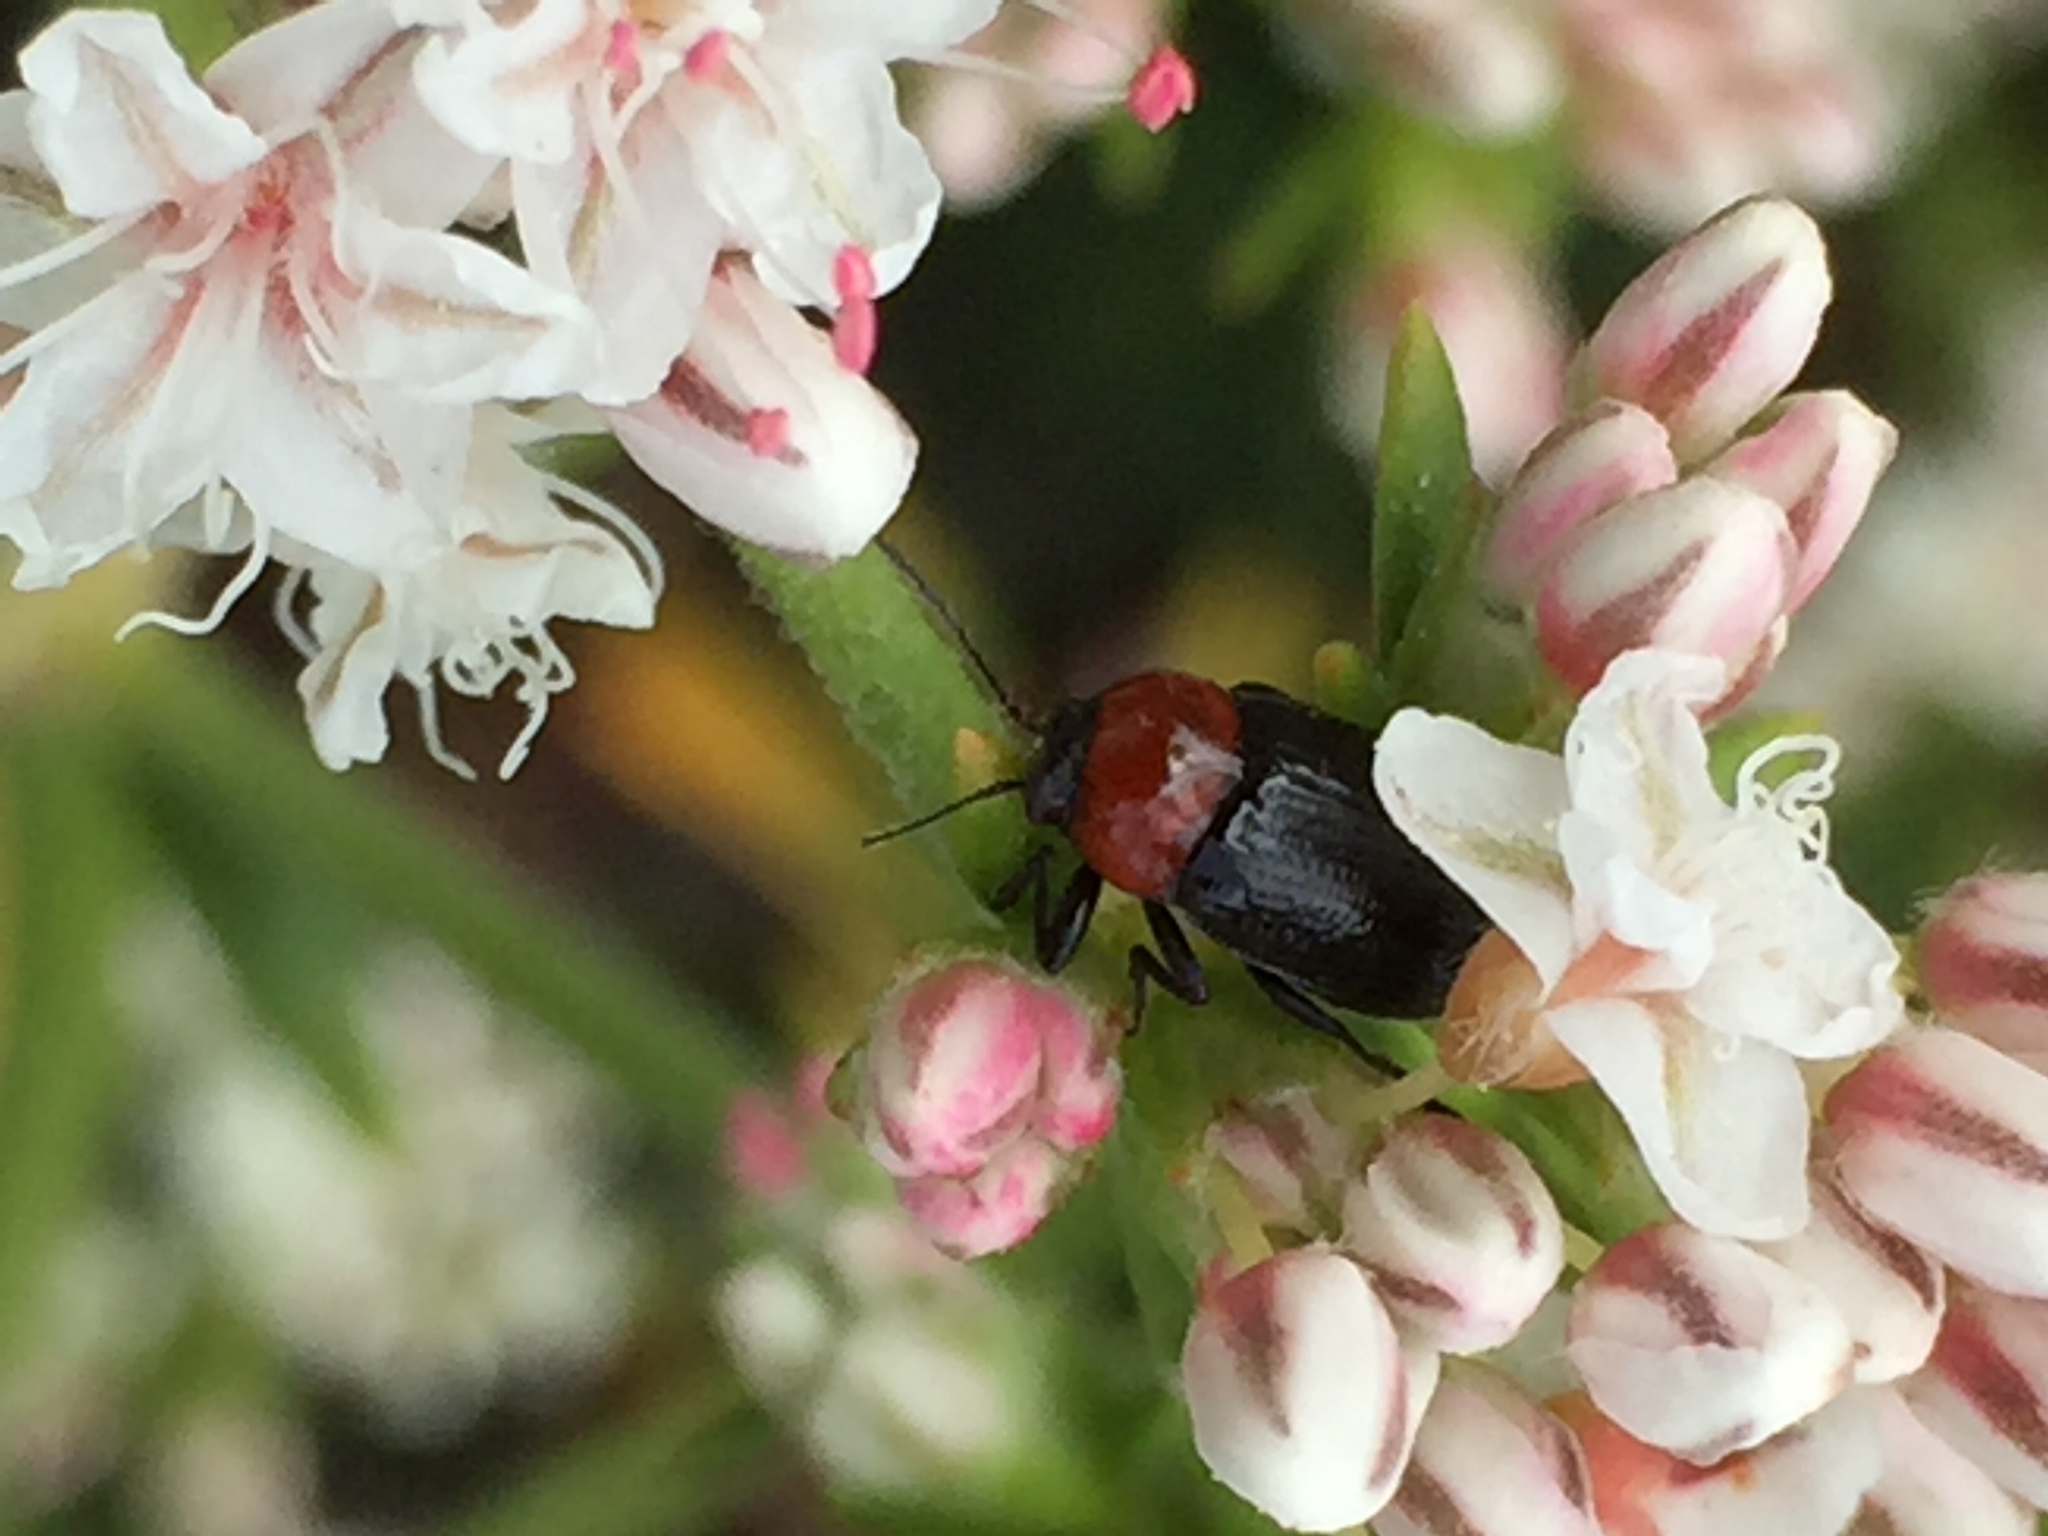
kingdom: Animalia
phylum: Arthropoda
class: Insecta
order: Coleoptera
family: Chrysomelidae
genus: Cryptocephalus
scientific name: Cryptocephalus sanguinicollis
